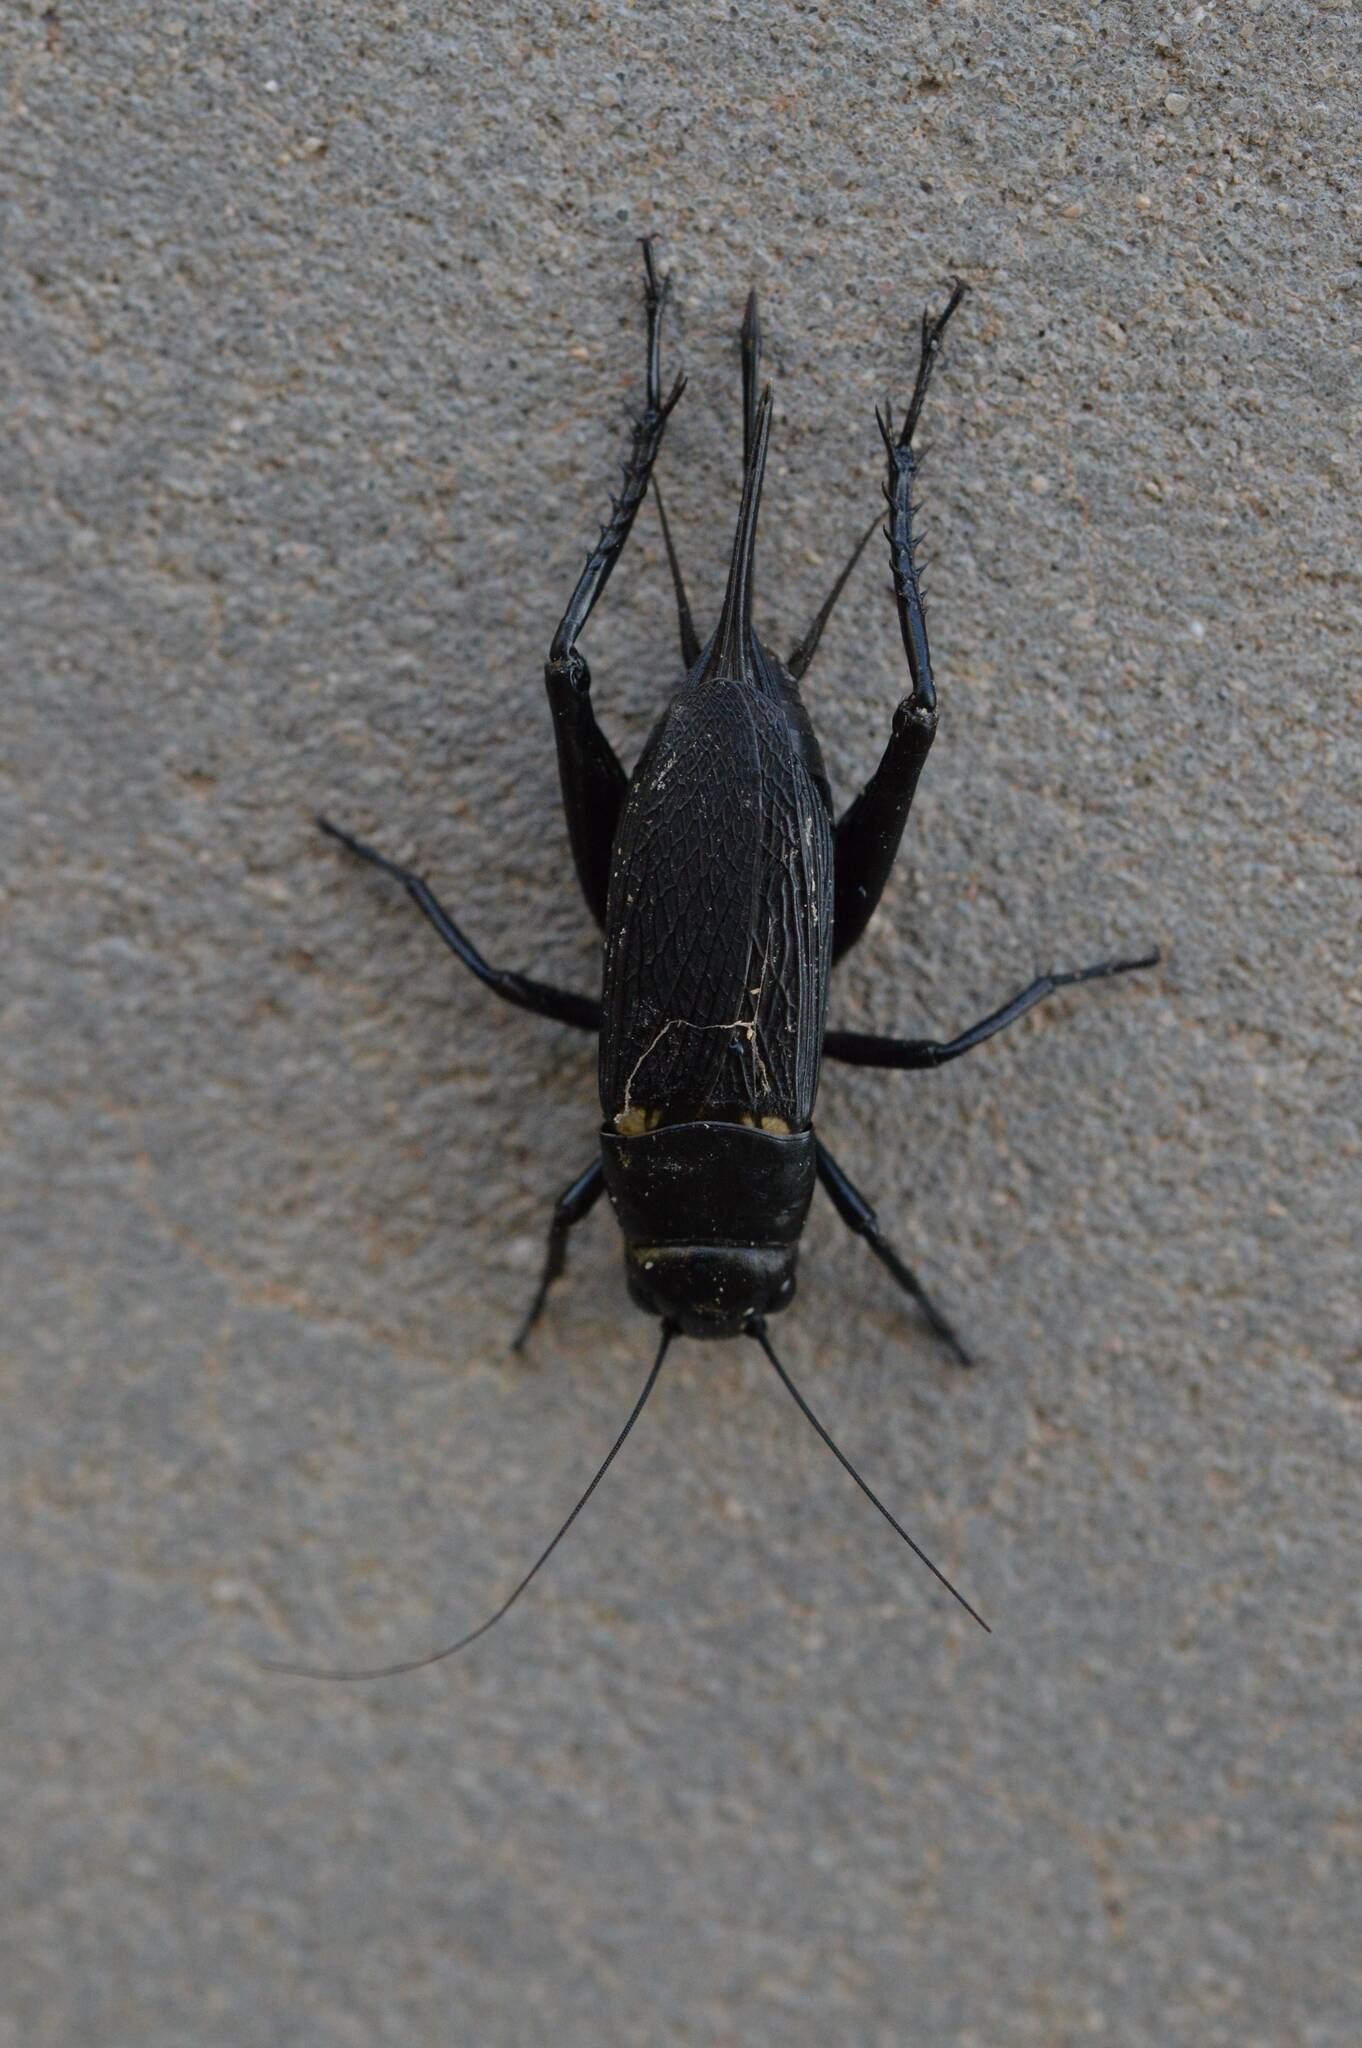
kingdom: Animalia
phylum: Arthropoda
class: Insecta
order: Orthoptera
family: Gryllidae
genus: Gryllus
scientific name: Gryllus bimaculatus
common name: Two-spotted cricket
